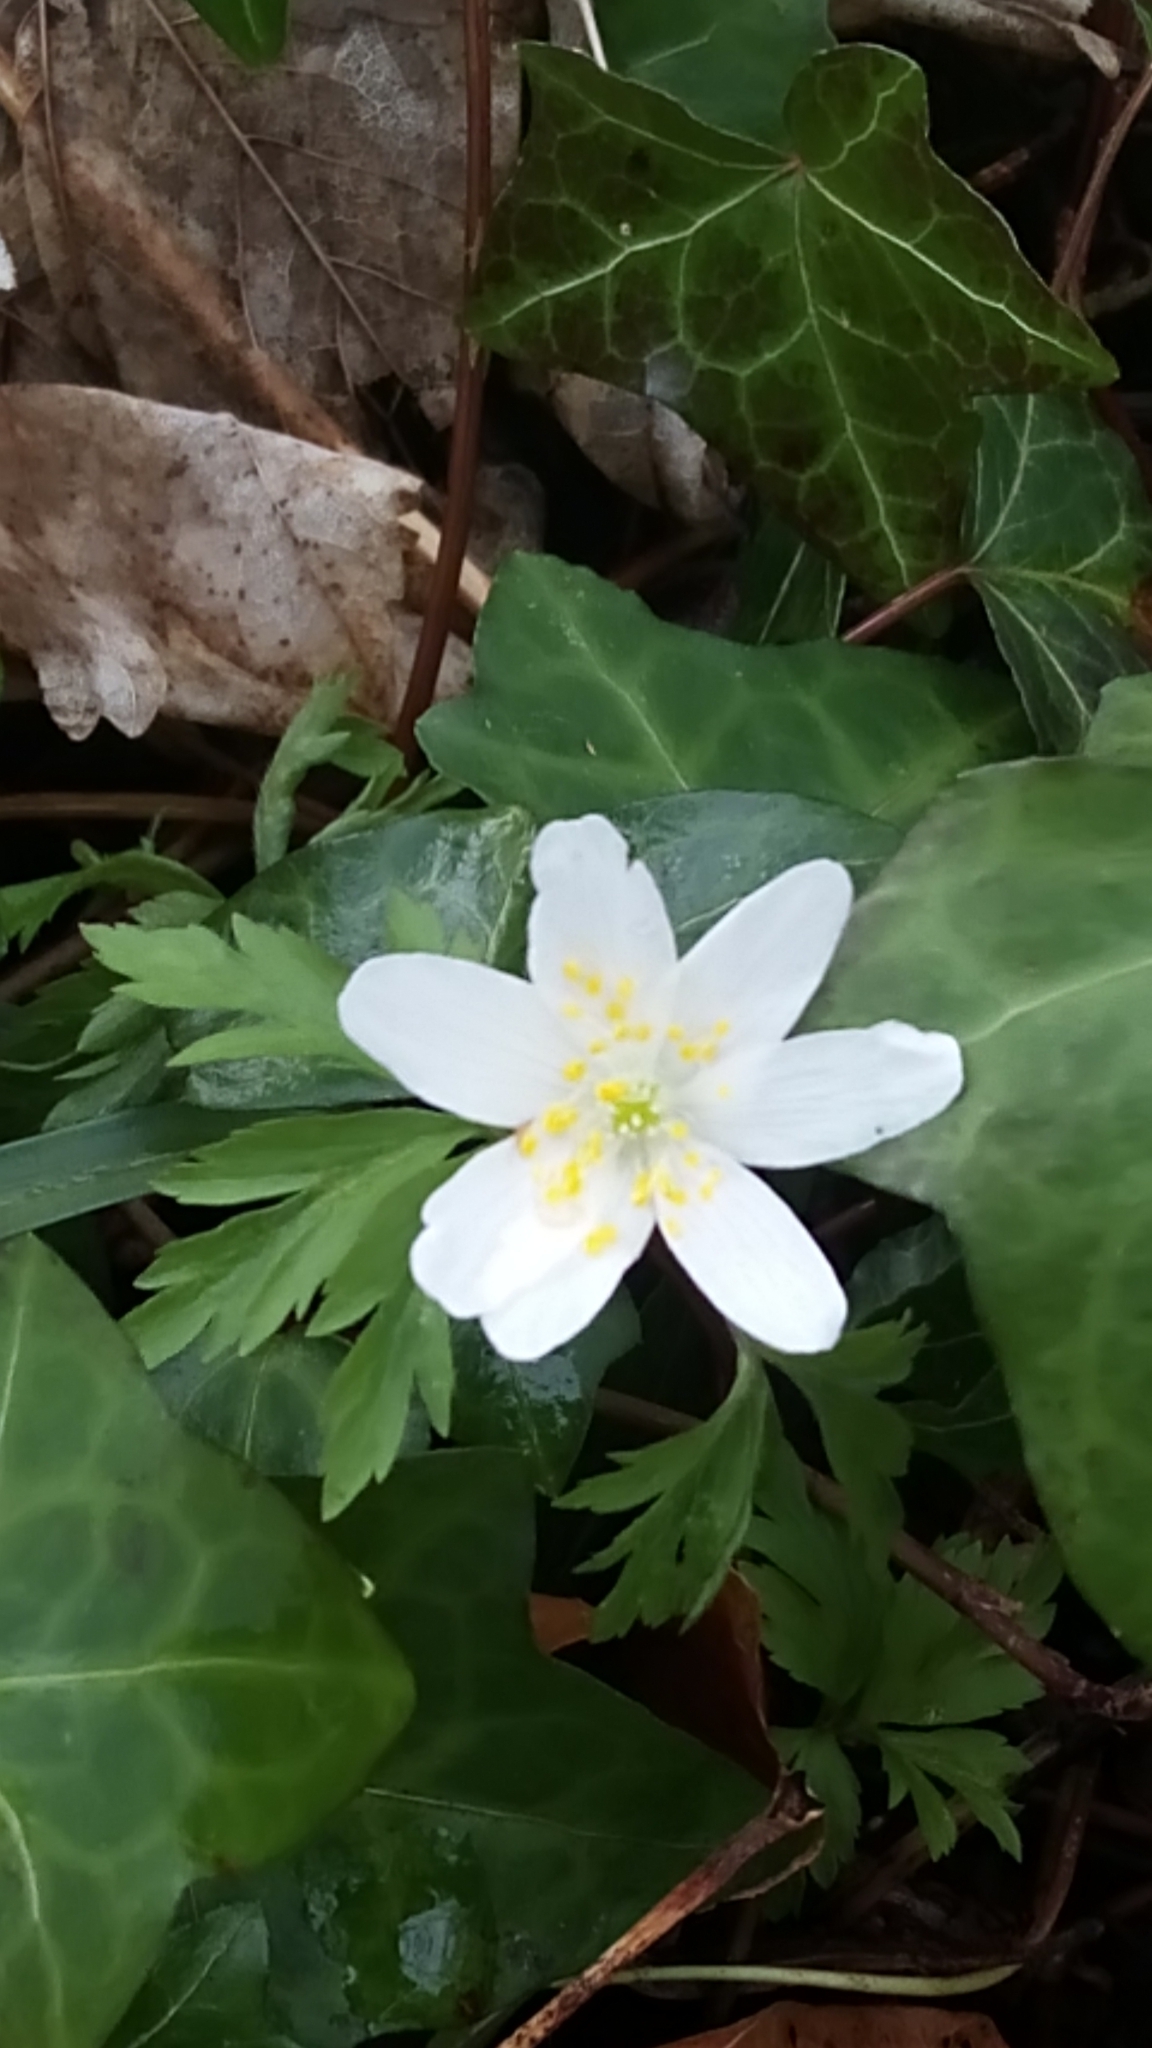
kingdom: Plantae
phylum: Tracheophyta
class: Magnoliopsida
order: Ranunculales
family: Ranunculaceae
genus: Anemone
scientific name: Anemone nemorosa
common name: Wood anemone
